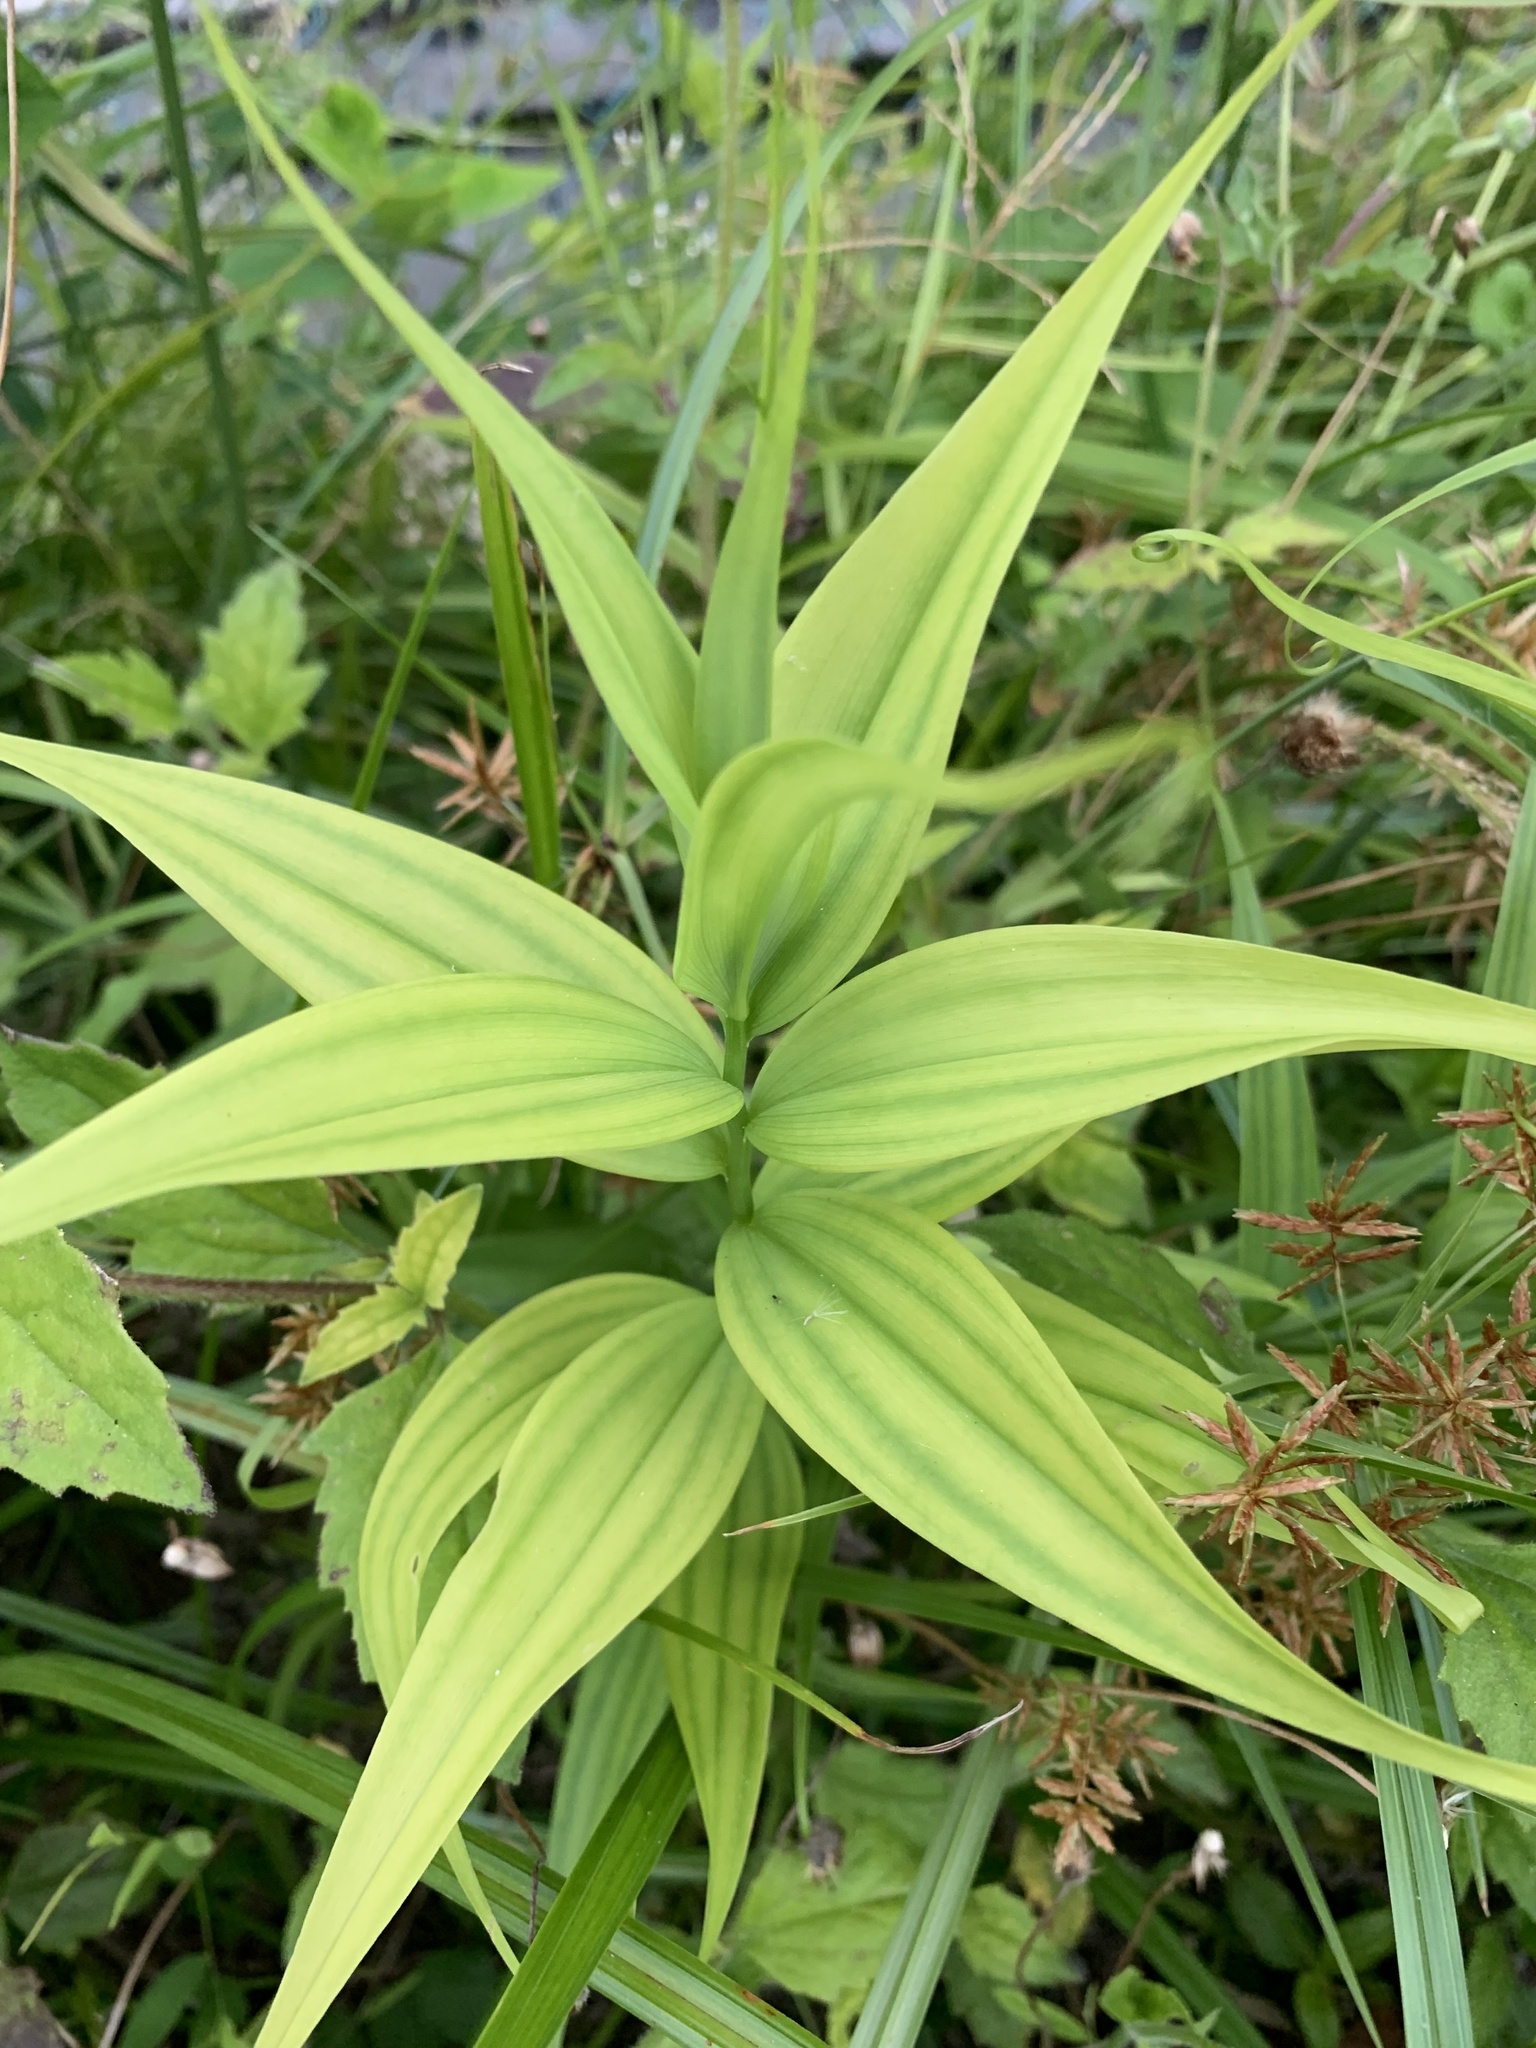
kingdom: Plantae
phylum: Tracheophyta
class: Liliopsida
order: Liliales
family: Colchicaceae
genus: Gloriosa
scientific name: Gloriosa superba
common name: Flame lily
